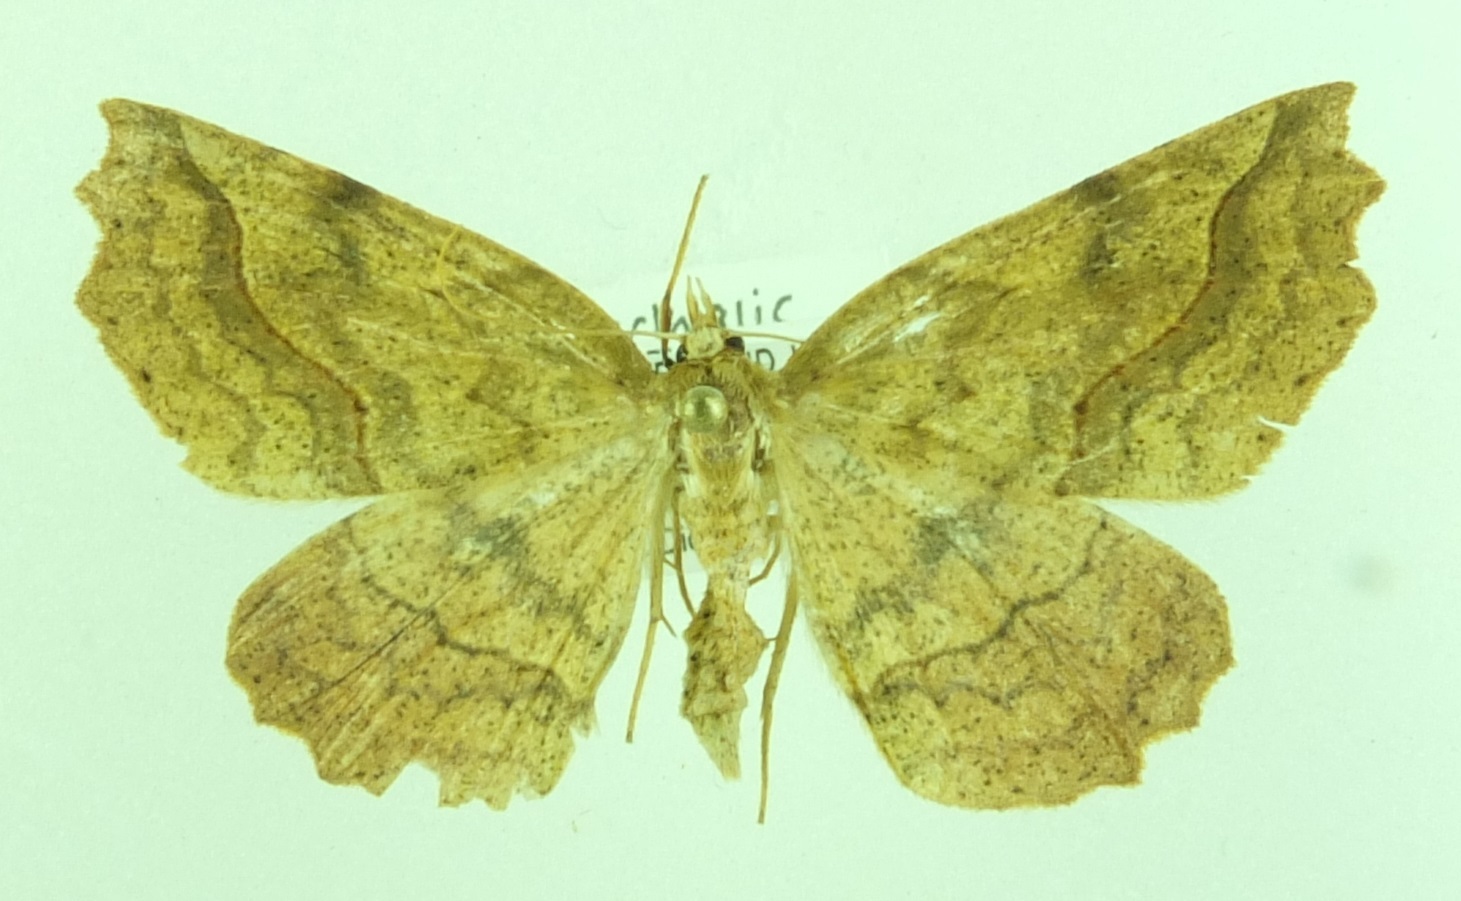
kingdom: Animalia
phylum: Arthropoda
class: Insecta
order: Lepidoptera
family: Geometridae
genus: Ischalis
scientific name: Ischalis variabilis
